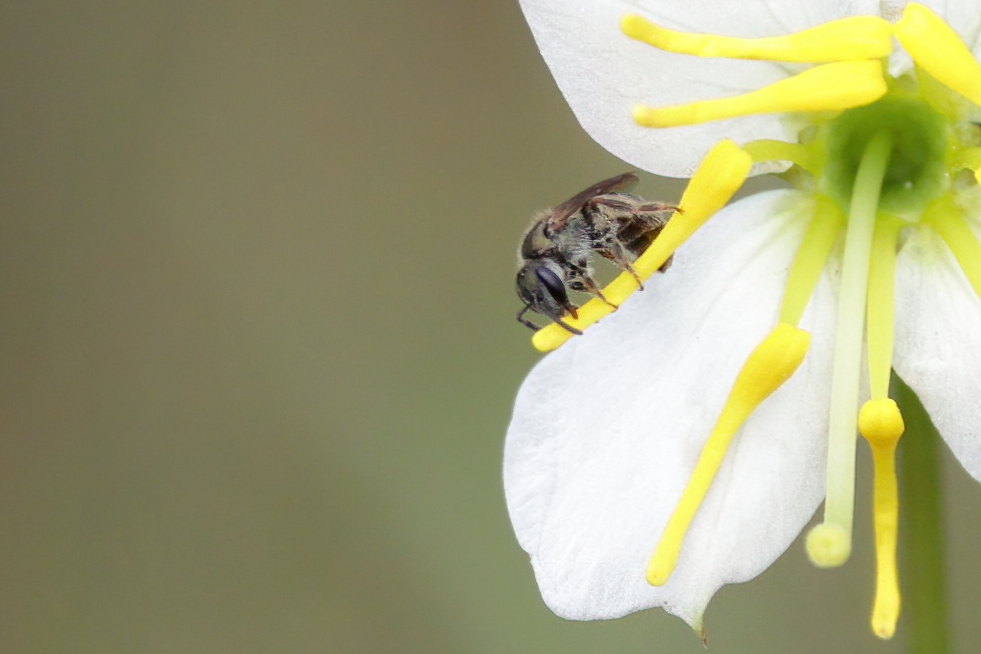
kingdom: Animalia
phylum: Arthropoda
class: Insecta
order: Hymenoptera
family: Halictidae
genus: Dialictus
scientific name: Dialictus
